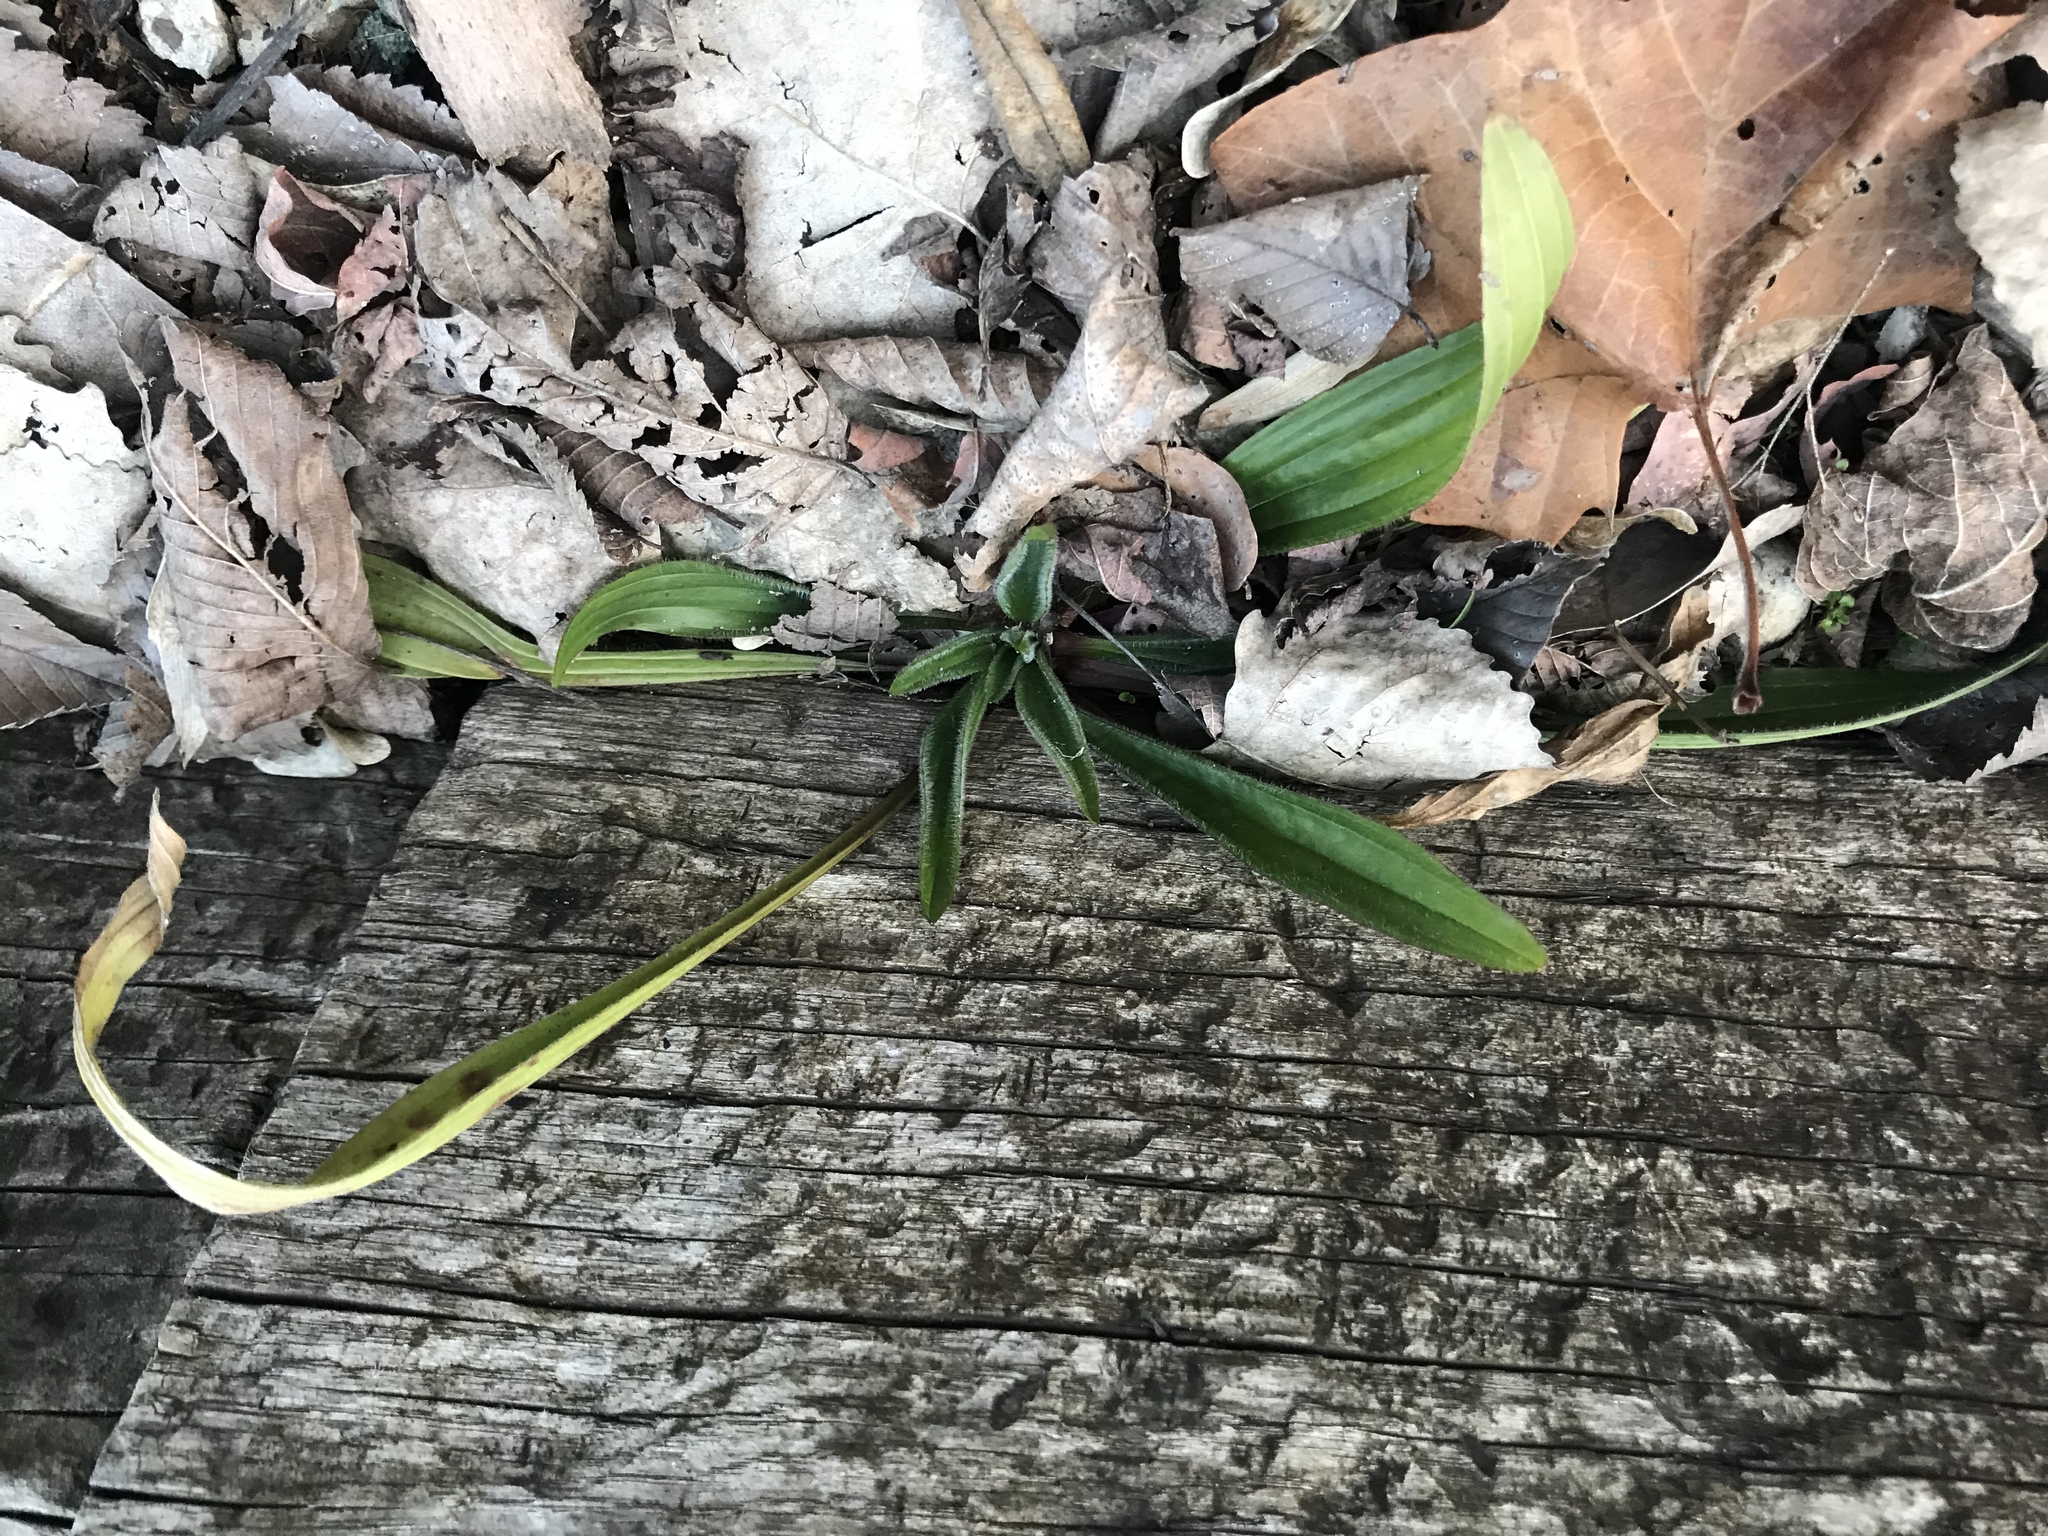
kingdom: Plantae
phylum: Tracheophyta
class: Magnoliopsida
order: Lamiales
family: Plantaginaceae
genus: Plantago
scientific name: Plantago lanceolata
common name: Ribwort plantain
